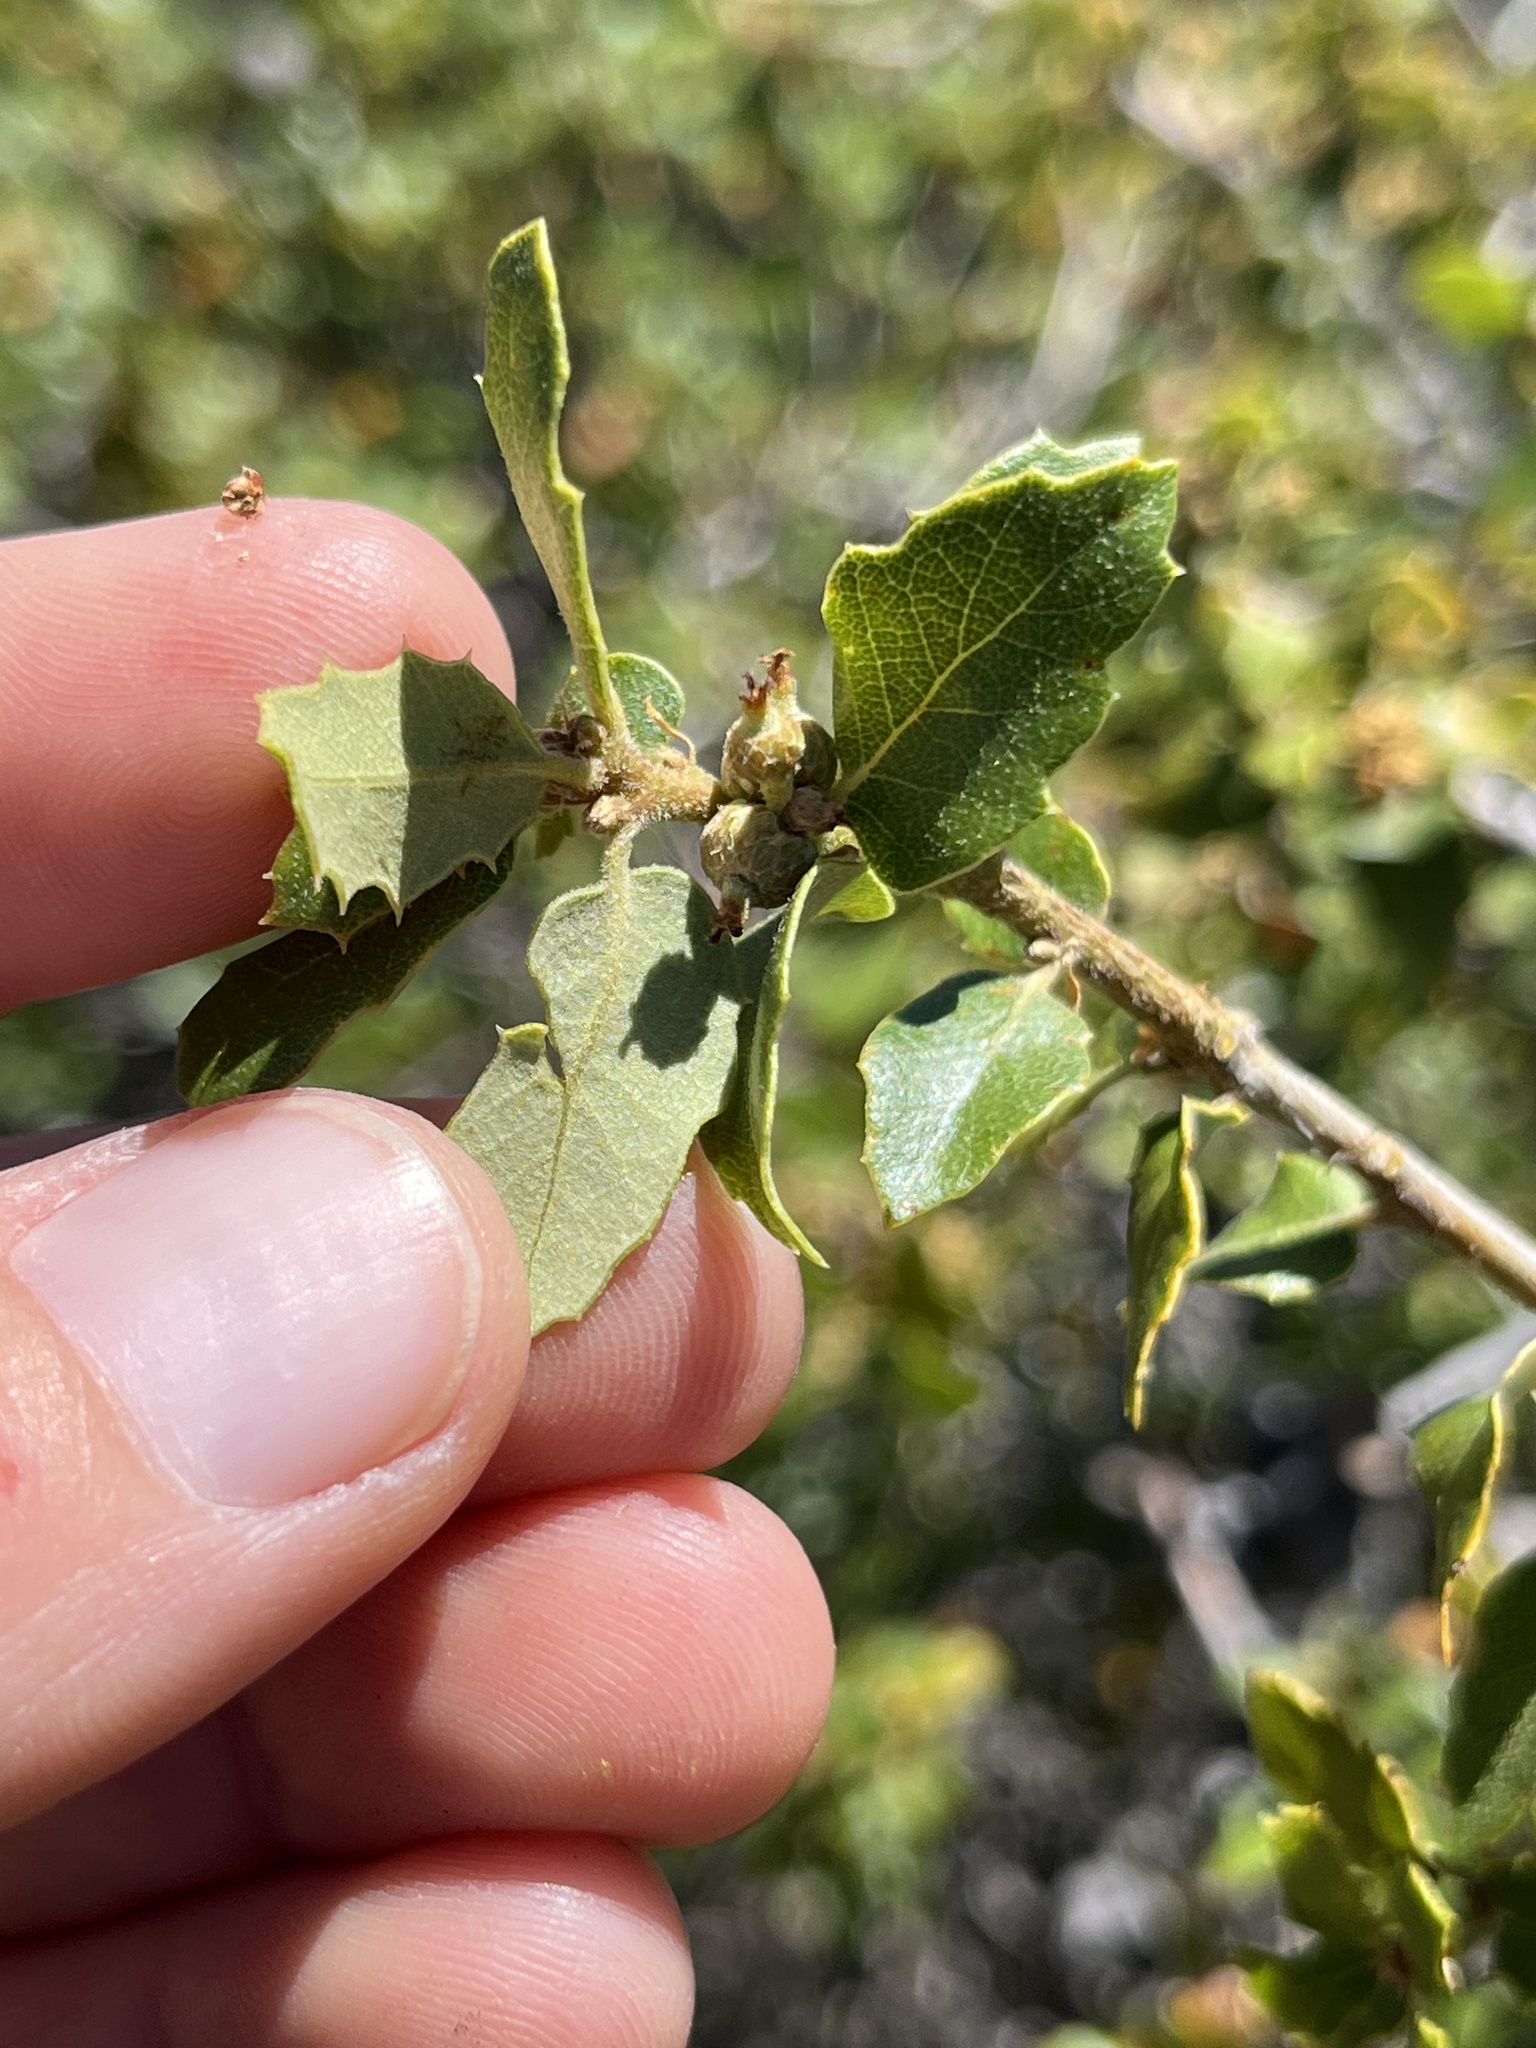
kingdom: Plantae
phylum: Tracheophyta
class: Magnoliopsida
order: Fagales
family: Fagaceae
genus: Quercus
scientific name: Quercus berberidifolia
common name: California scrub oak
